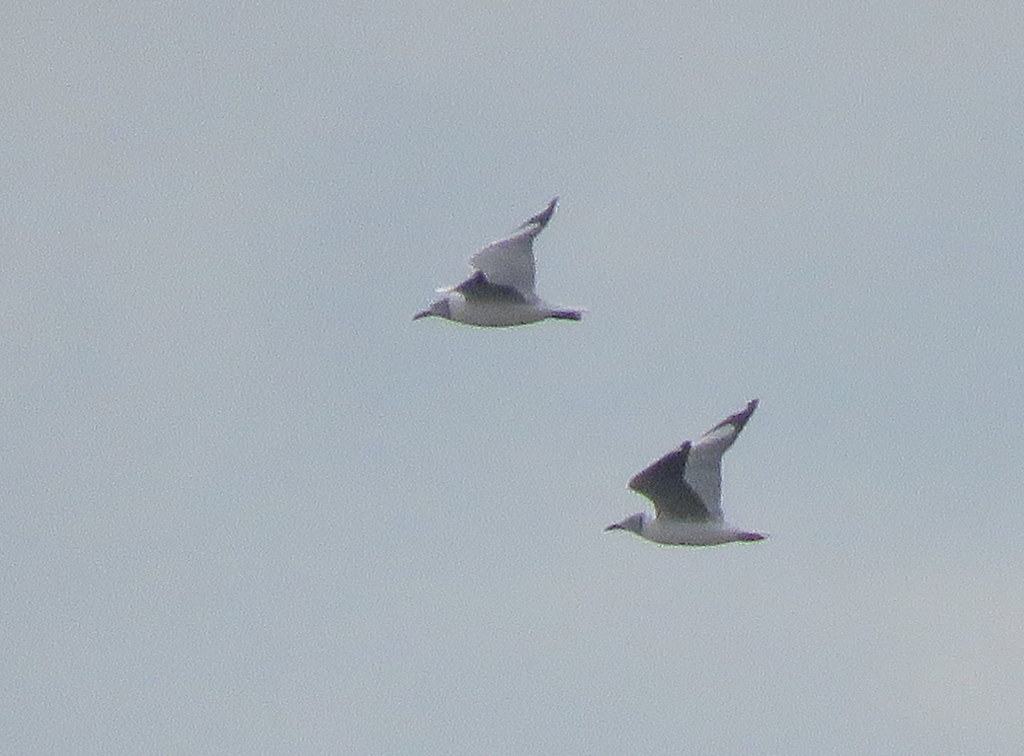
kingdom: Animalia
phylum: Chordata
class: Aves
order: Charadriiformes
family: Laridae
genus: Chroicocephalus
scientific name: Chroicocephalus cirrocephalus
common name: Grey-headed gull
